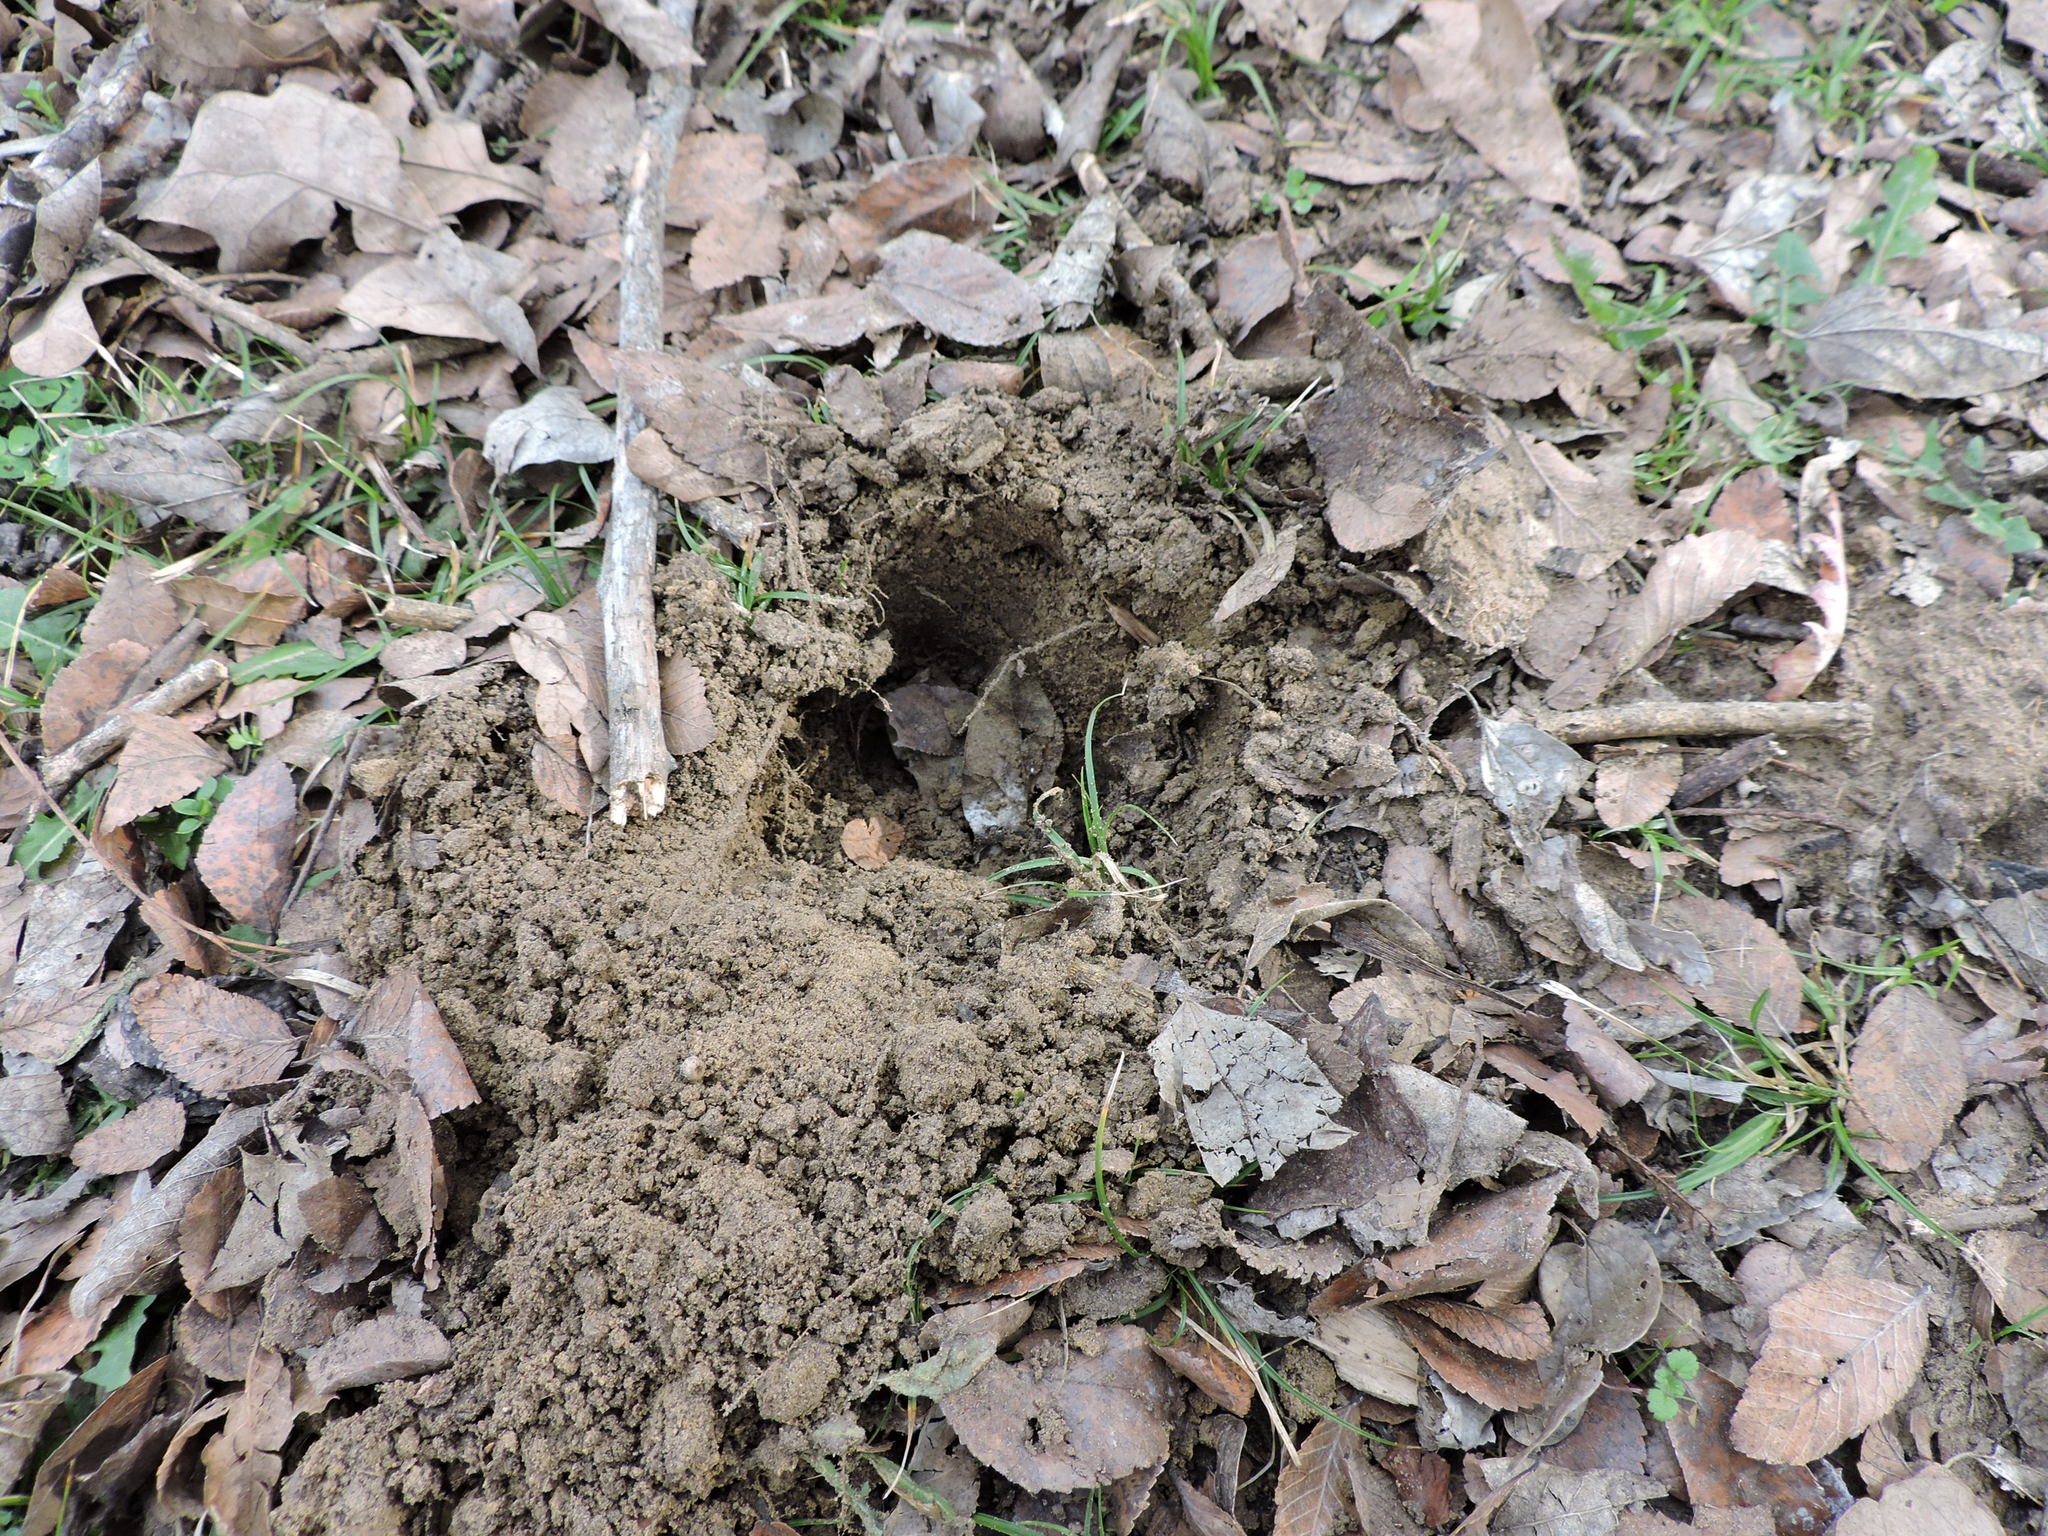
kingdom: Animalia
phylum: Chordata
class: Mammalia
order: Cingulata
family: Dasypodidae
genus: Dasypus
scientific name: Dasypus novemcinctus
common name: Nine-banded armadillo
